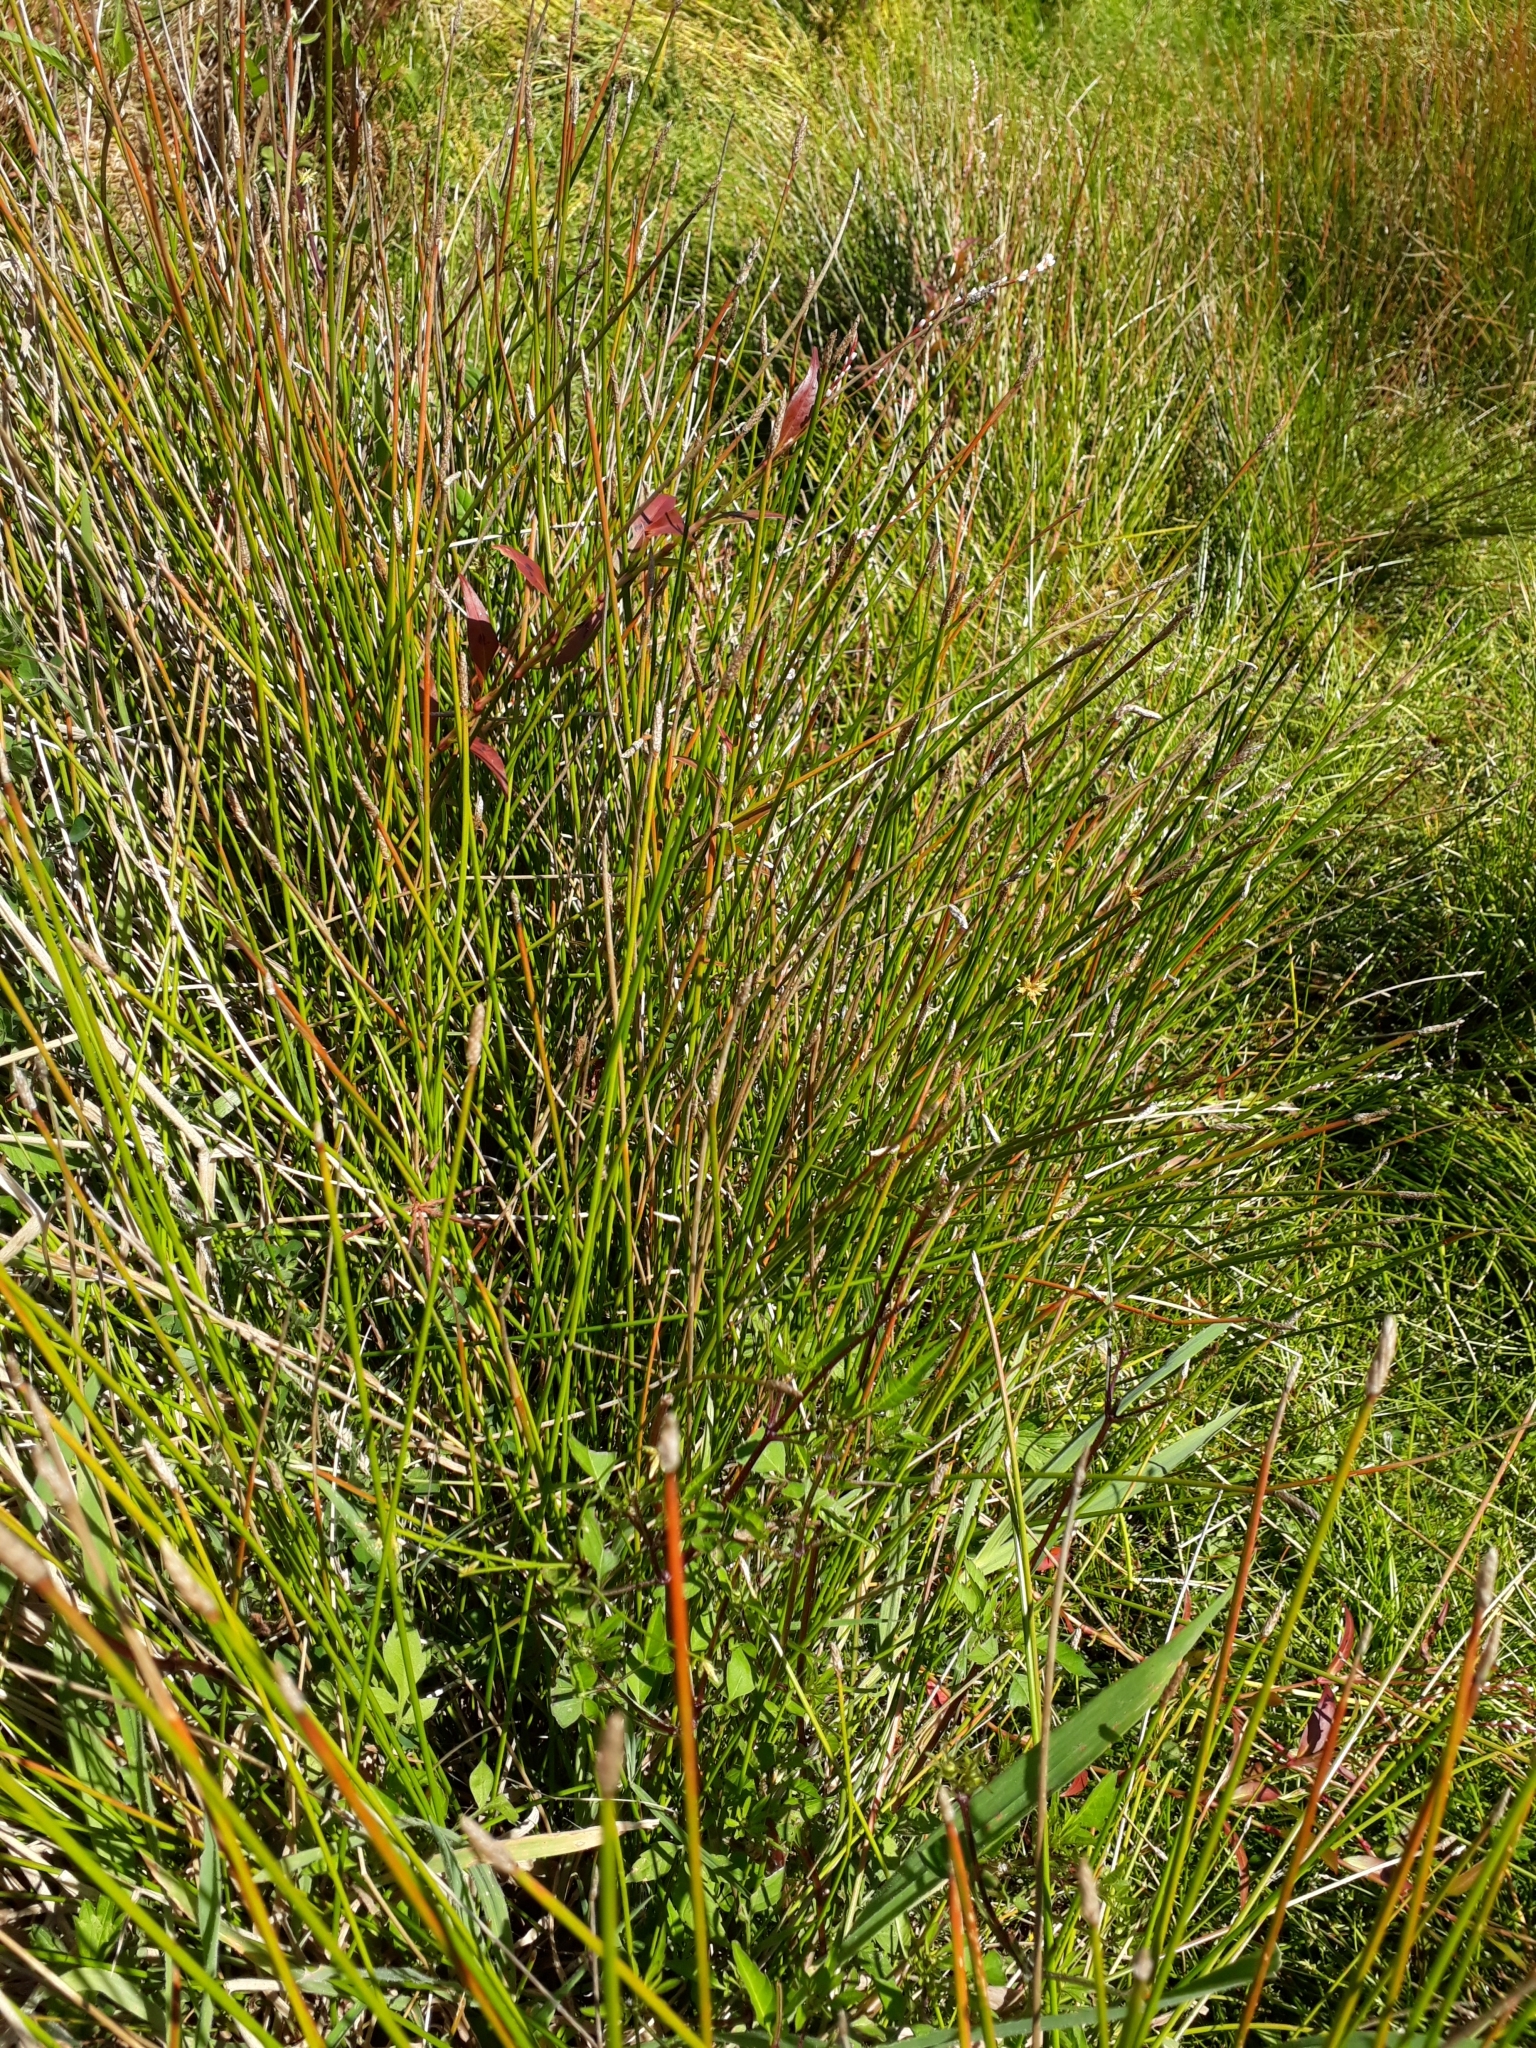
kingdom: Plantae
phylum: Tracheophyta
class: Liliopsida
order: Poales
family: Cyperaceae
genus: Eleocharis
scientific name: Eleocharis acuta
